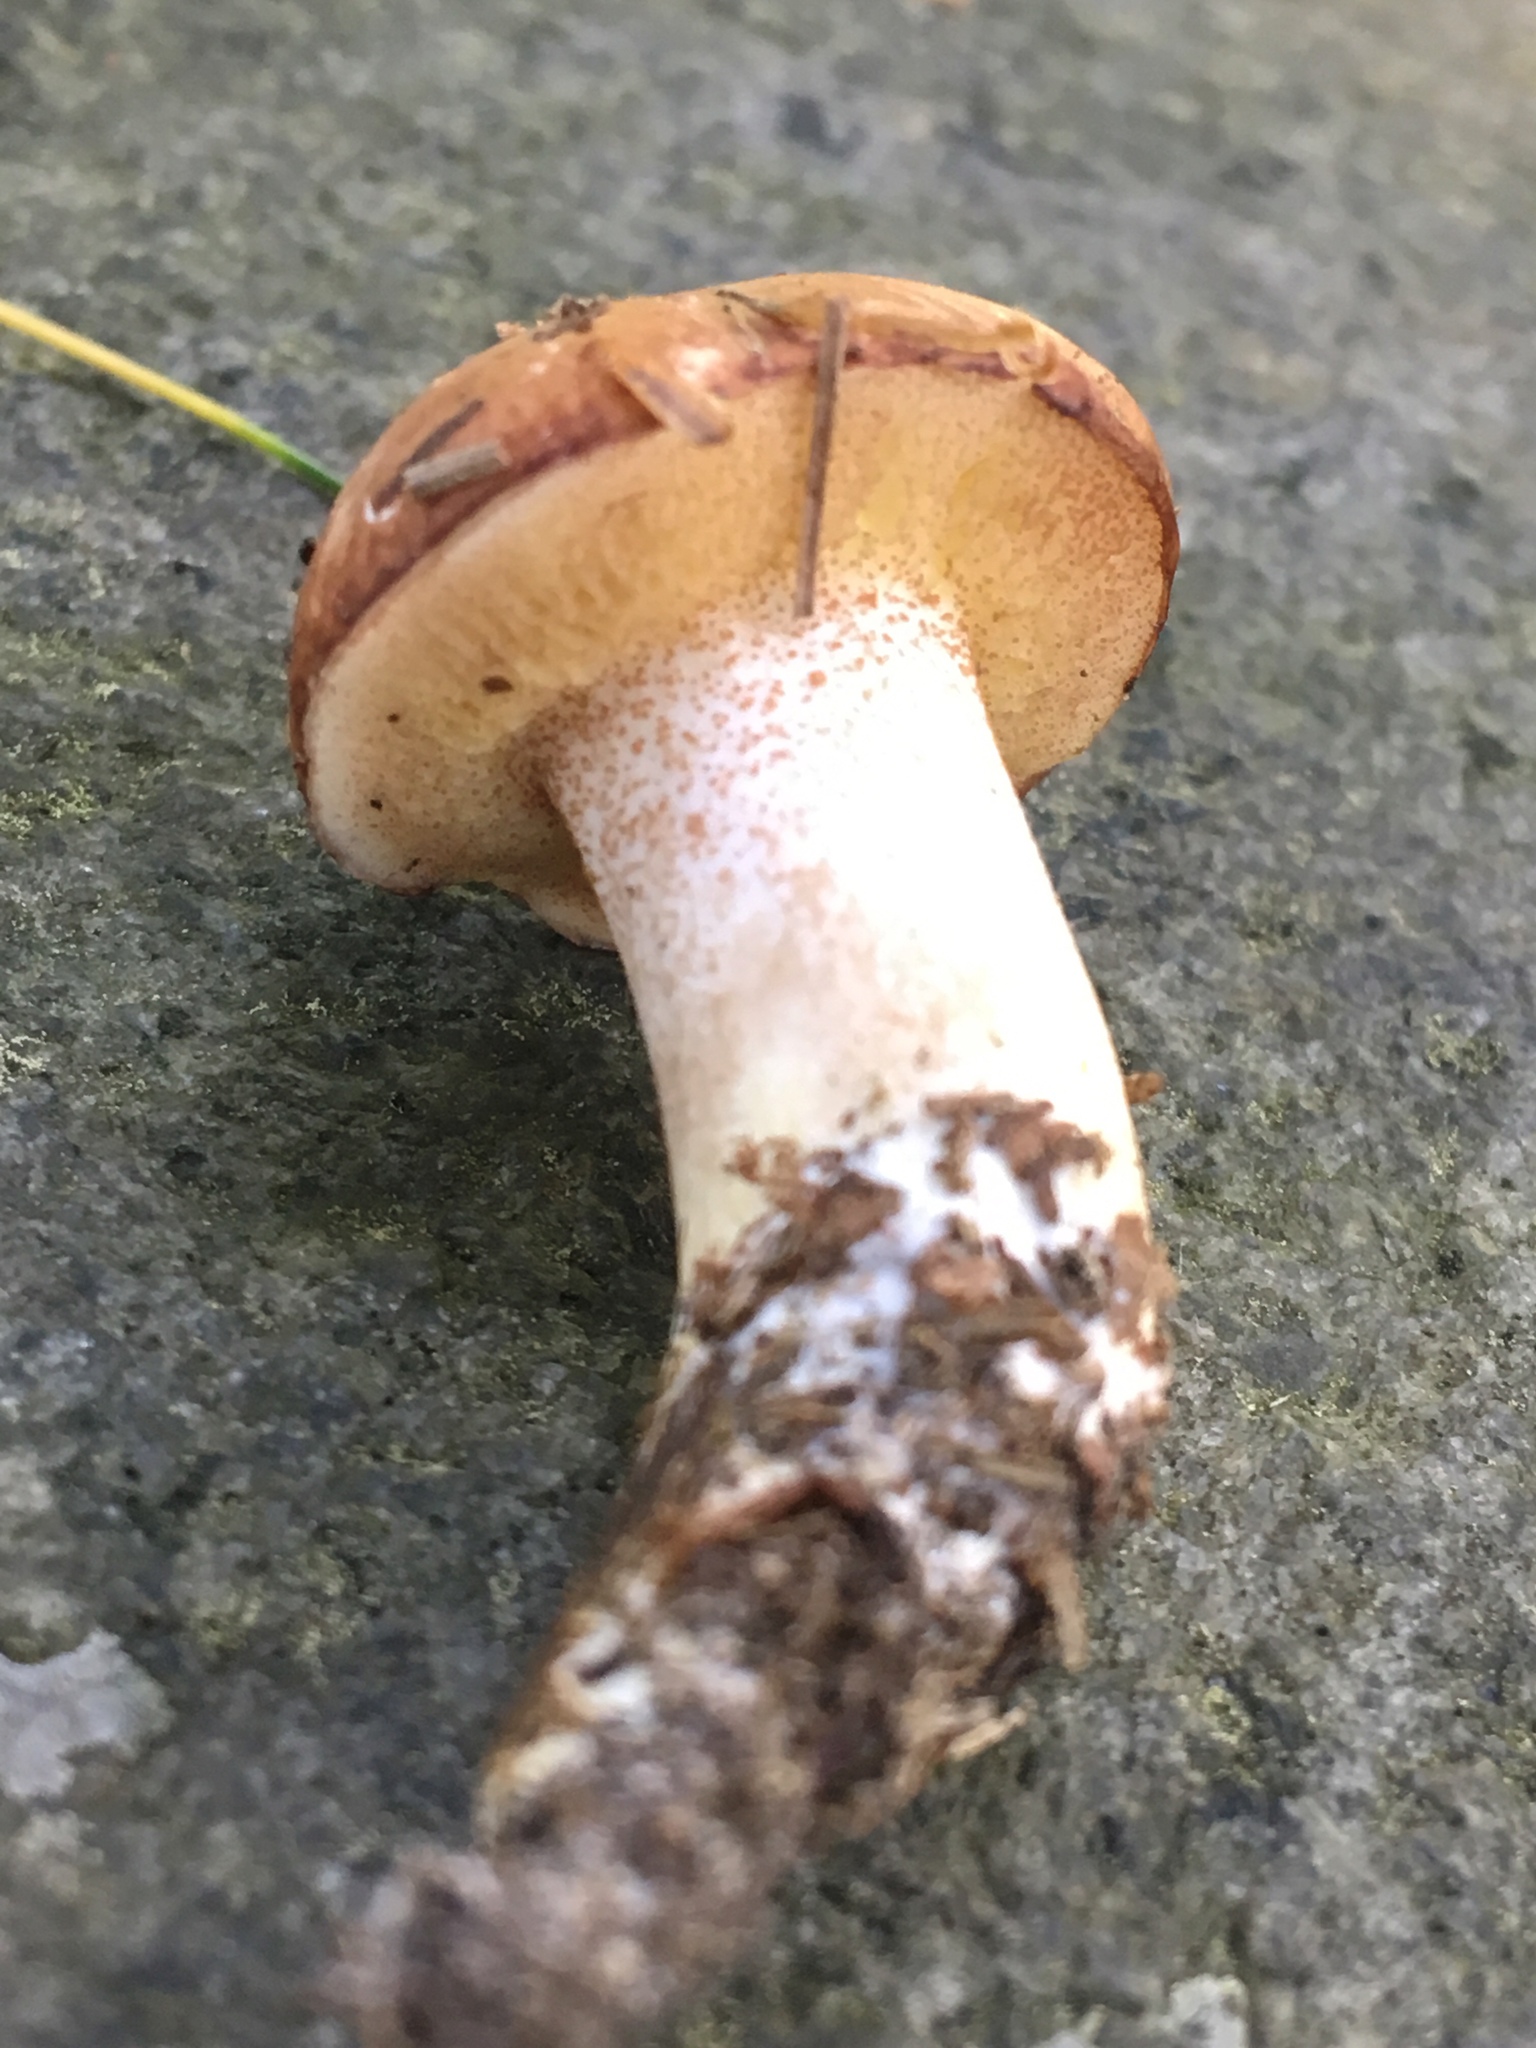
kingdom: Fungi
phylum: Basidiomycota
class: Agaricomycetes
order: Boletales
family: Suillaceae
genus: Suillus
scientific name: Suillus granulatus
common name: Weeping bolete
